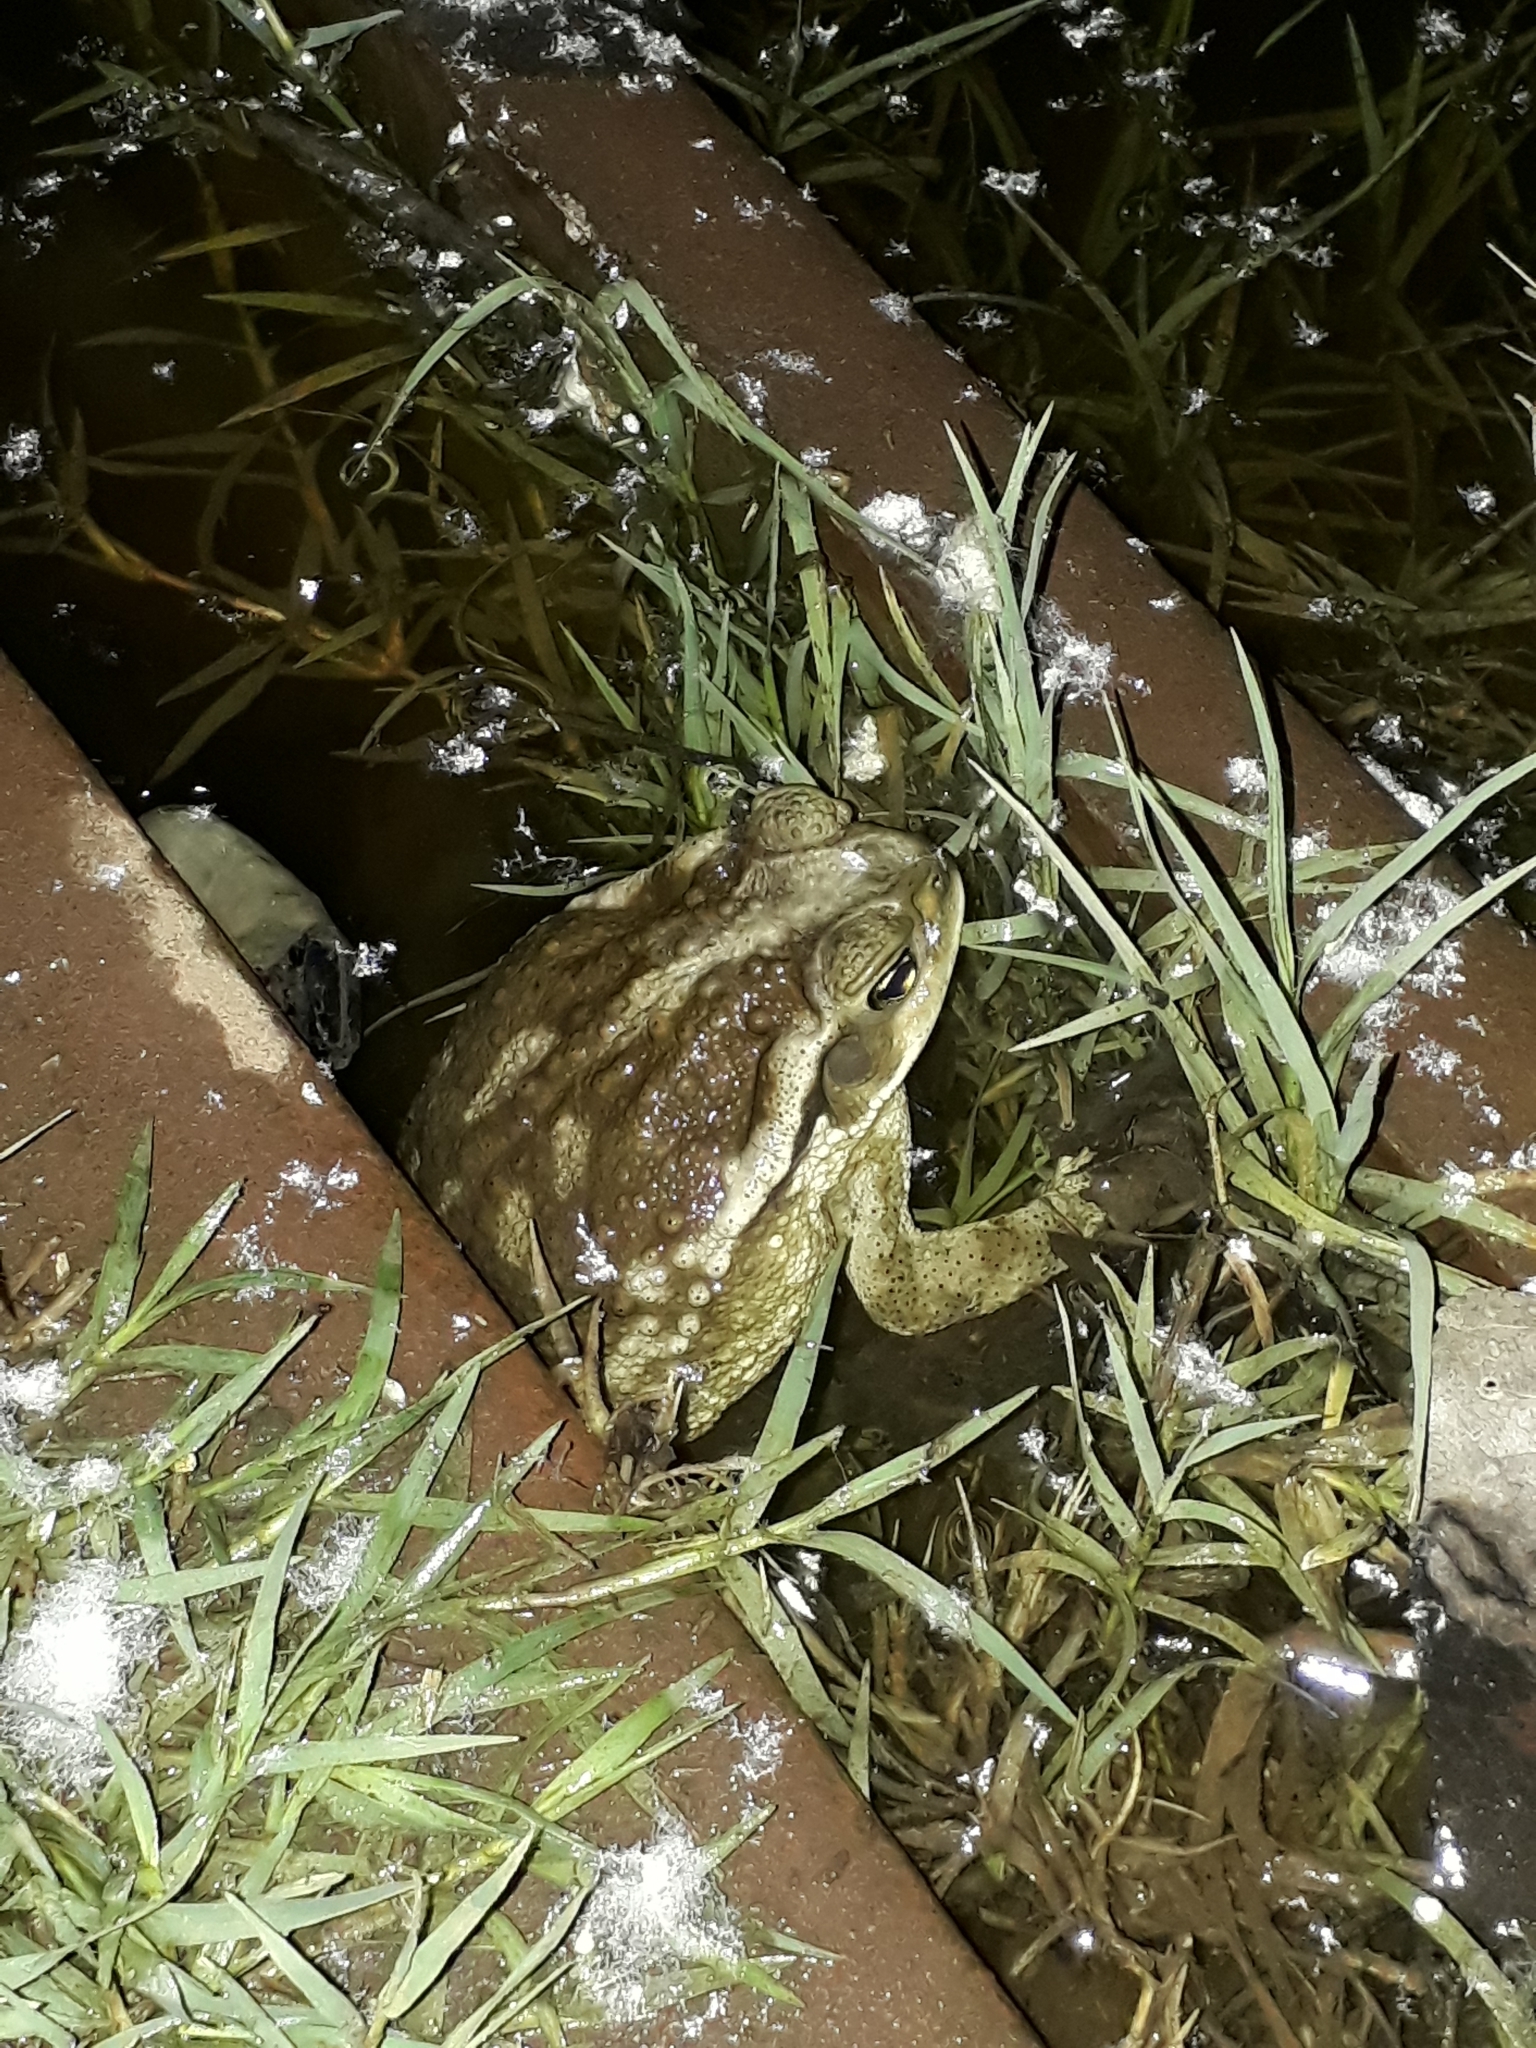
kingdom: Animalia
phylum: Chordata
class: Amphibia
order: Anura
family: Bufonidae
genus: Rhinella
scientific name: Rhinella arenarum
